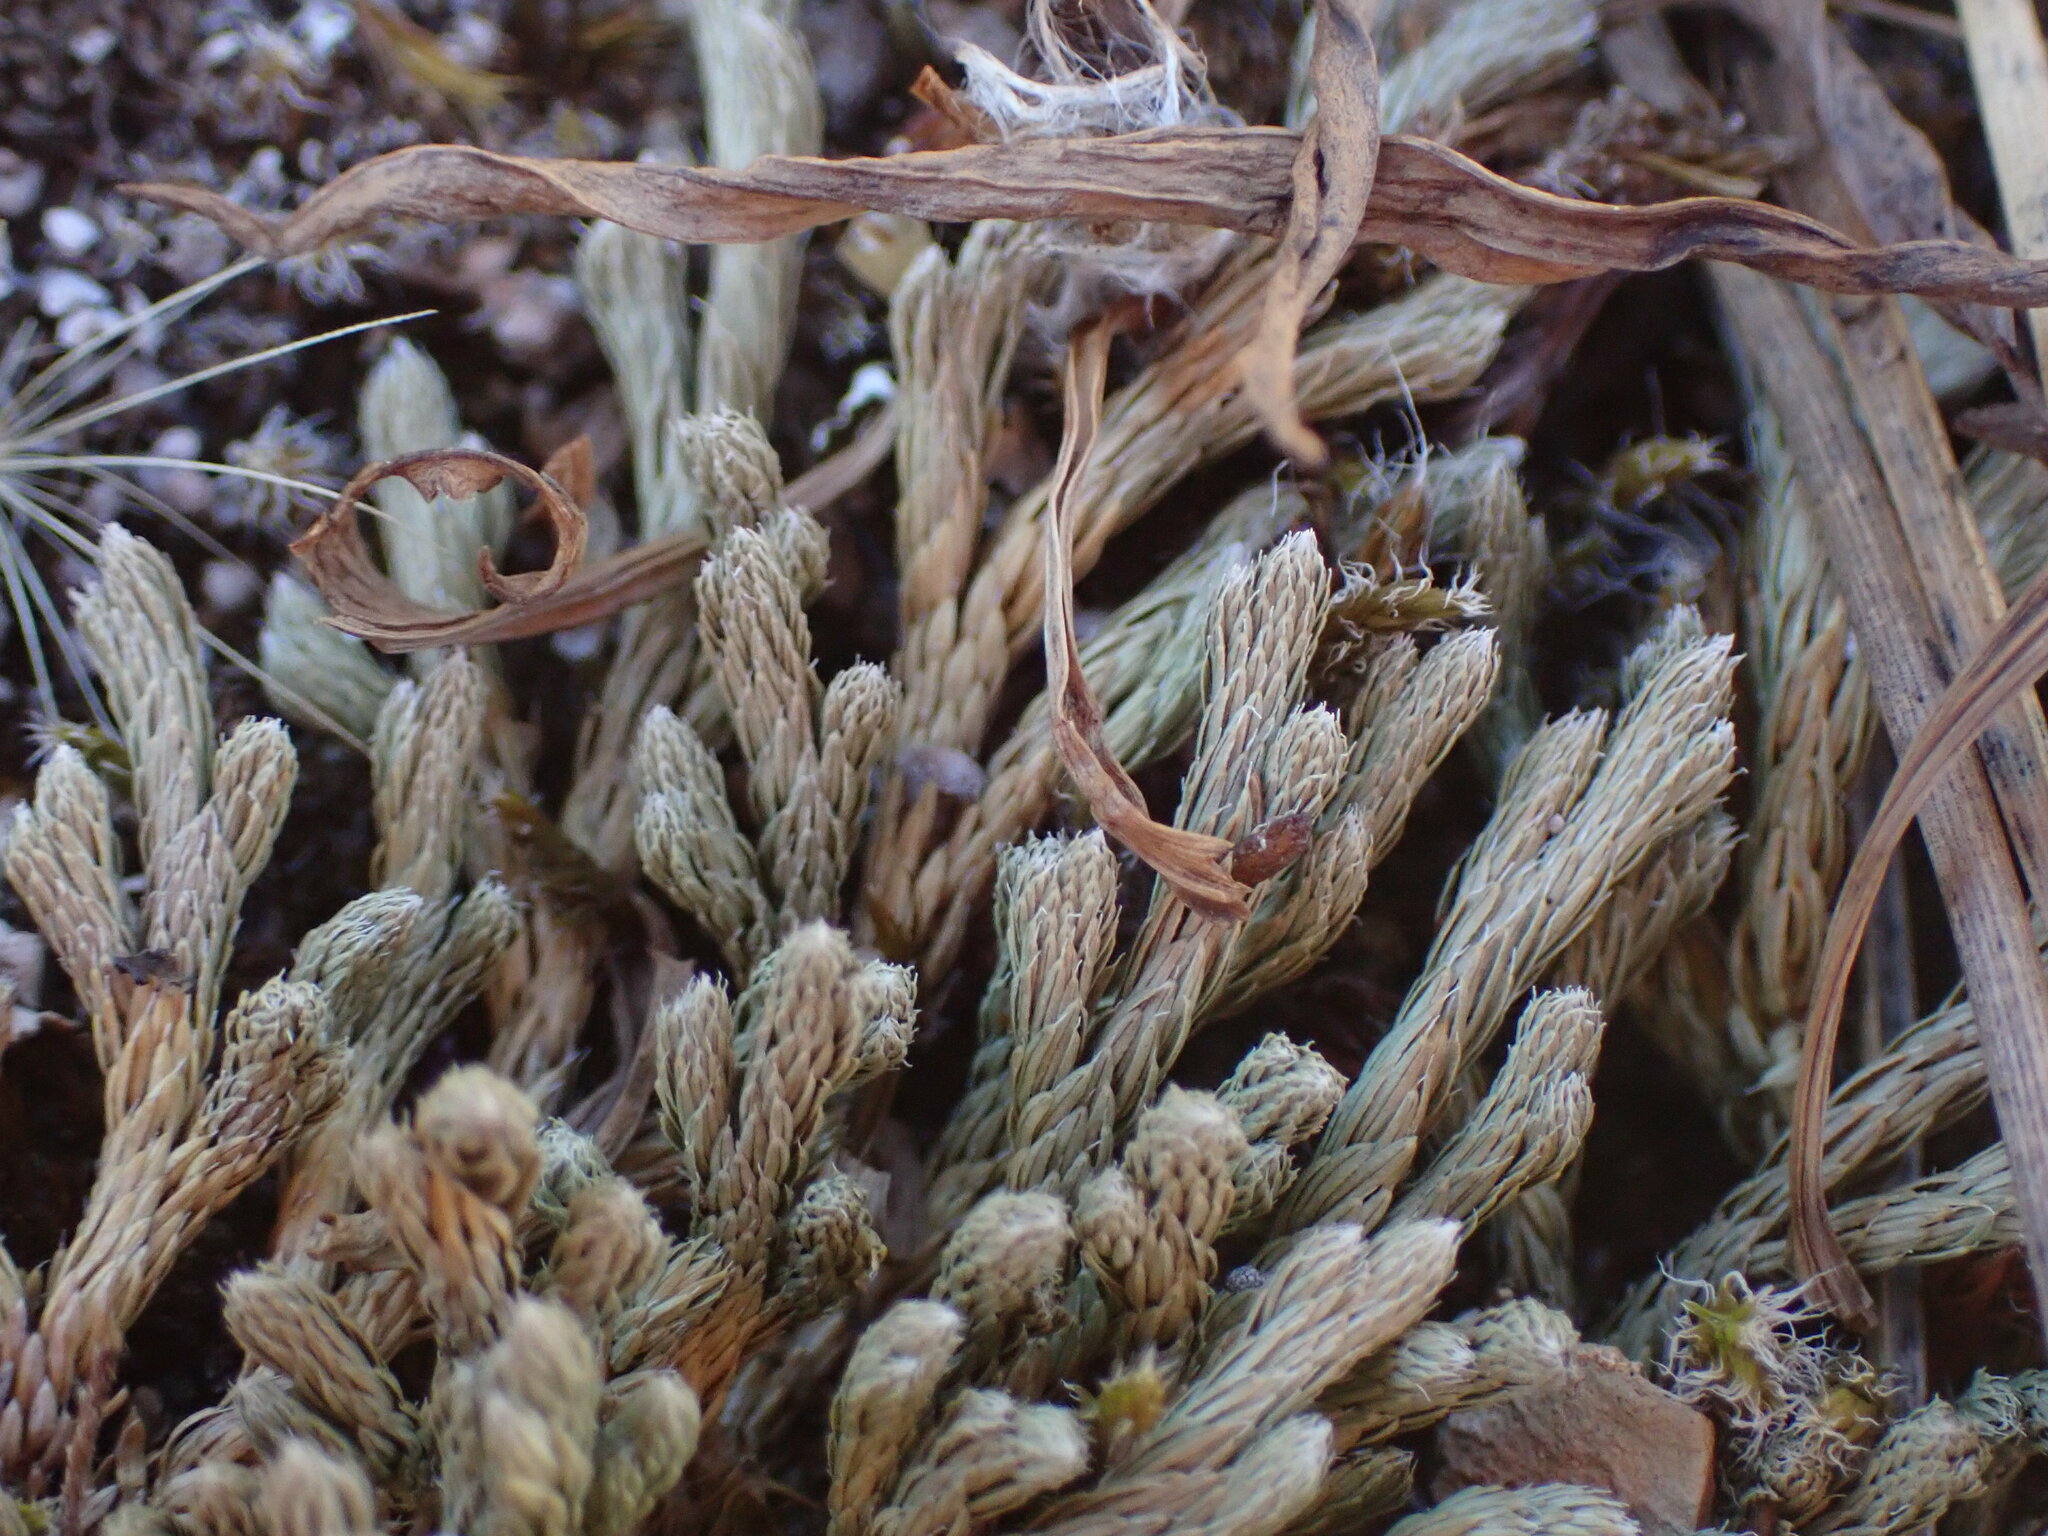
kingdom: Plantae
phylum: Tracheophyta
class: Lycopodiopsida
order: Selaginellales
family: Selaginellaceae
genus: Selaginella
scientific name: Selaginella wallacei
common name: Wallace's selaginella
